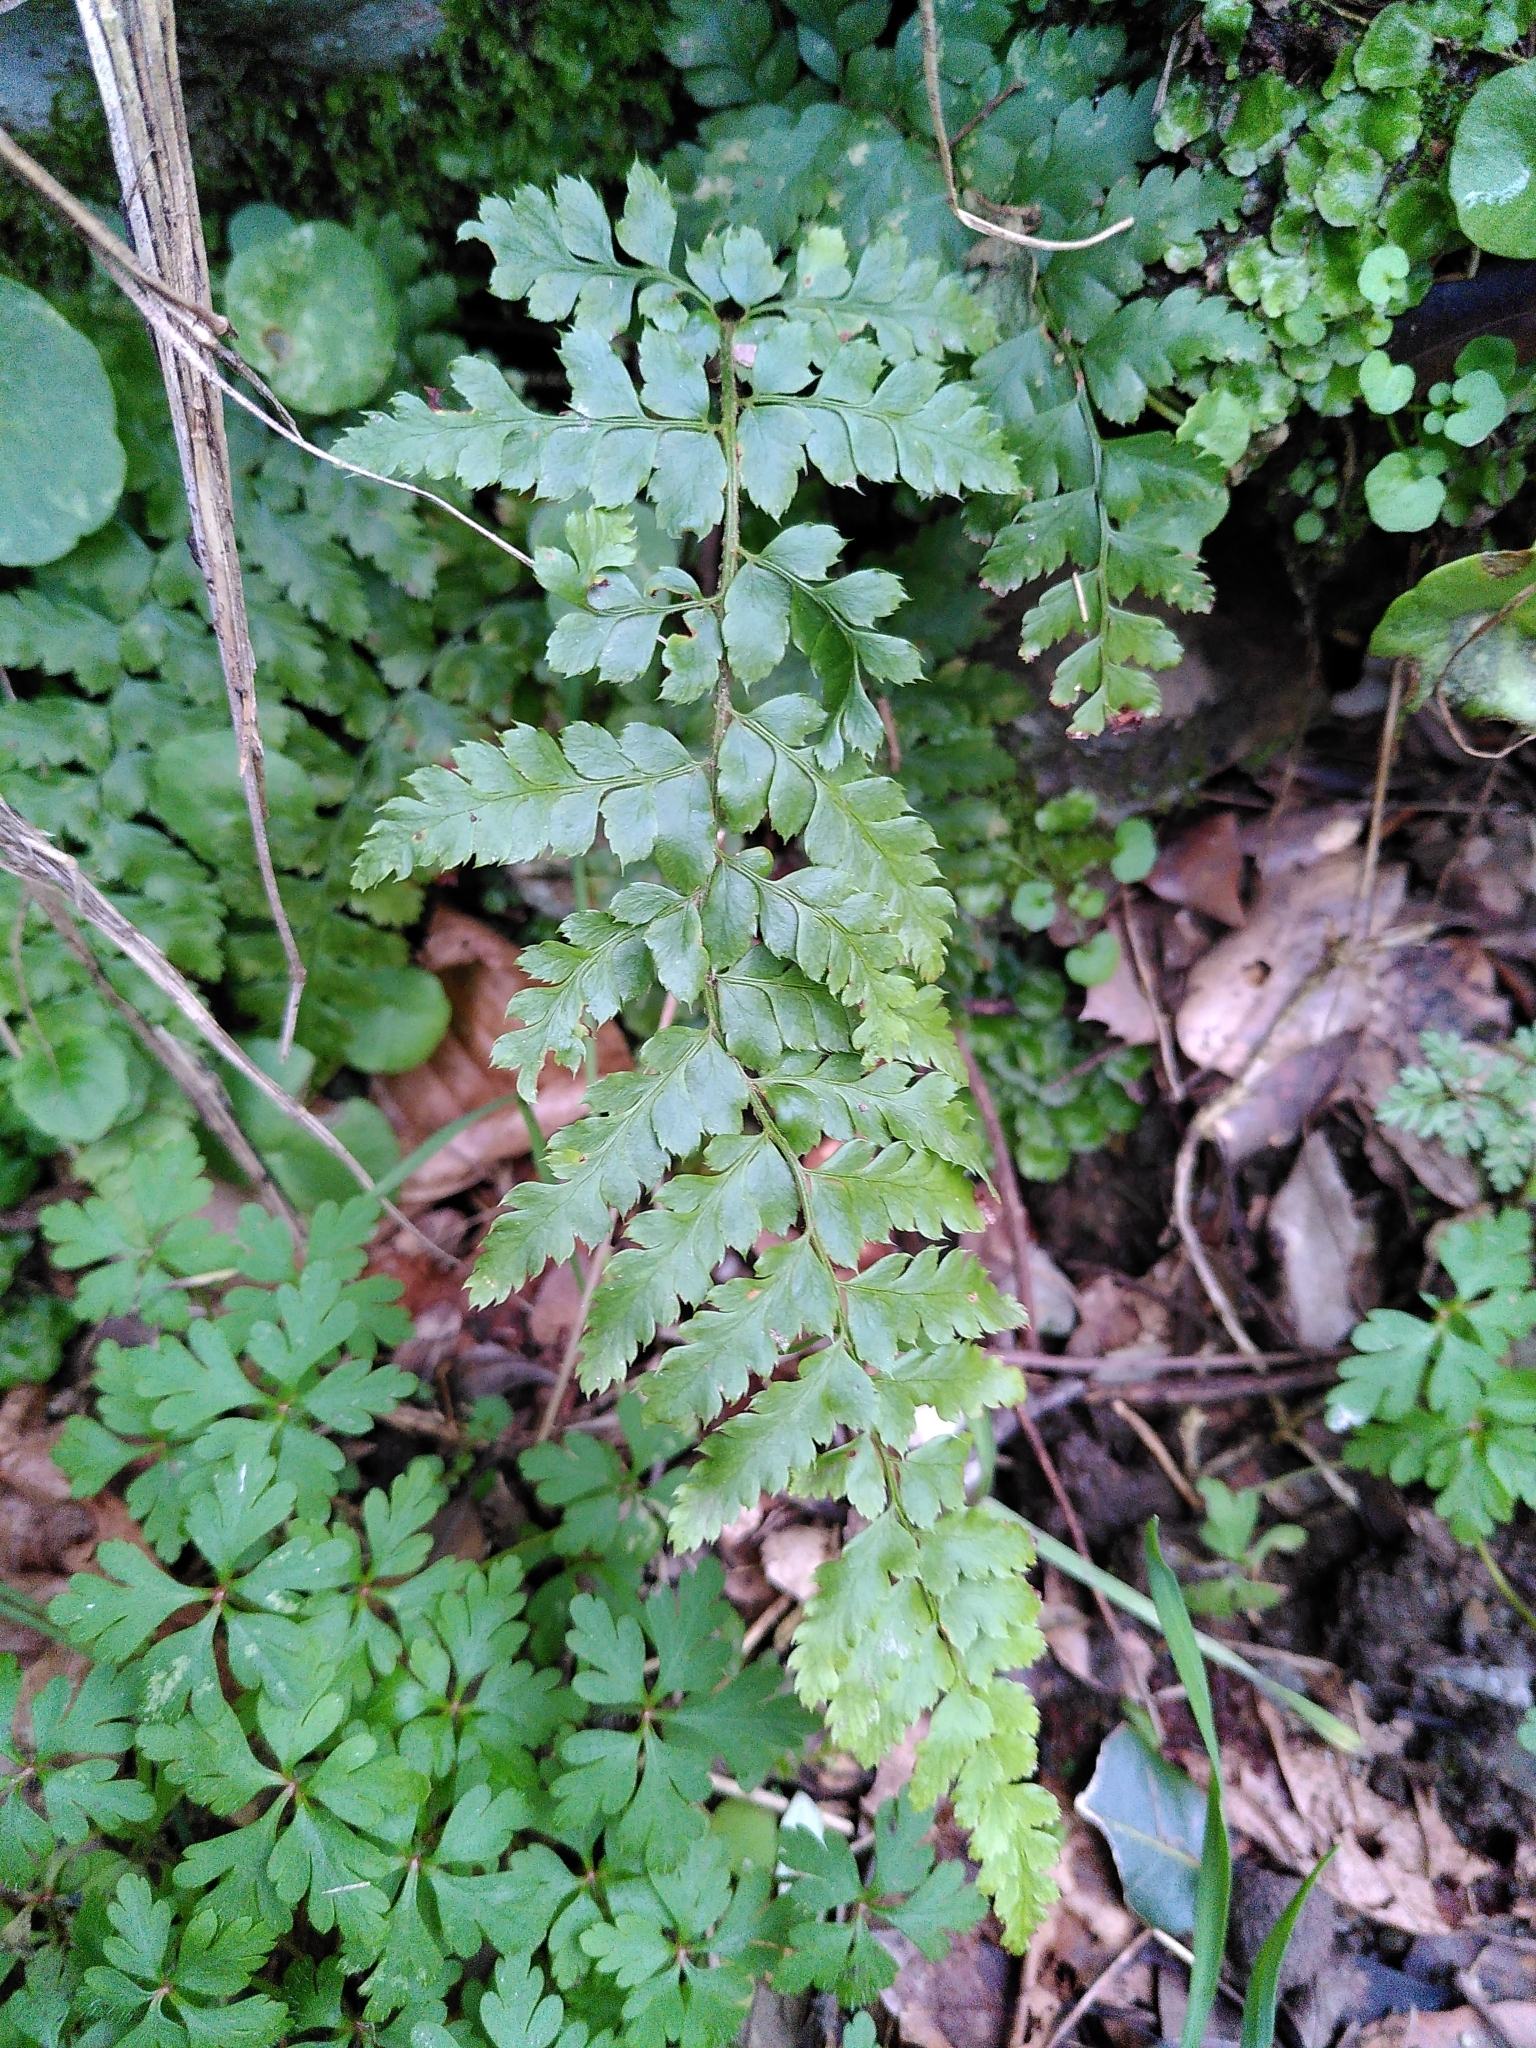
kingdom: Plantae
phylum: Tracheophyta
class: Polypodiopsida
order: Polypodiales
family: Dryopteridaceae
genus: Polystichum
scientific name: Polystichum setiferum
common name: Soft shield-fern
